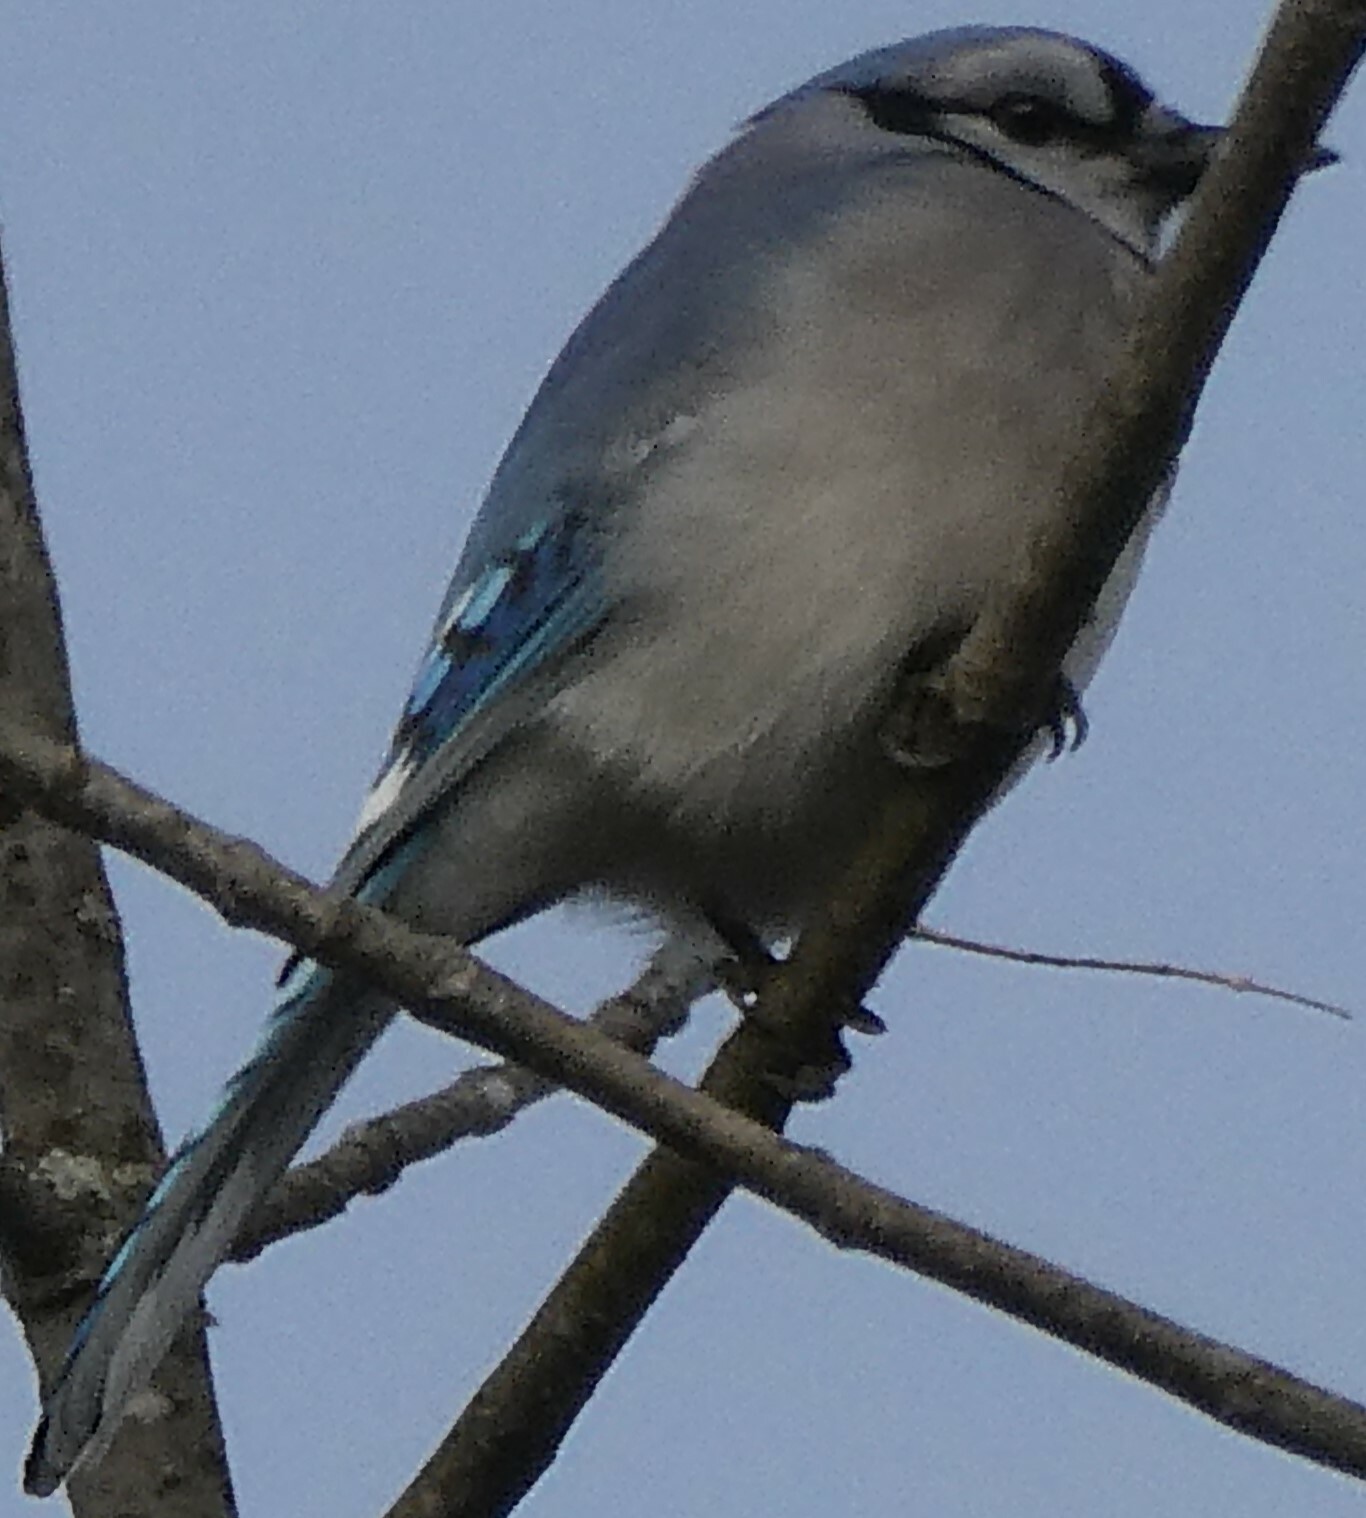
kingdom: Animalia
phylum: Chordata
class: Aves
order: Passeriformes
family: Corvidae
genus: Cyanocitta
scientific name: Cyanocitta cristata
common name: Blue jay
